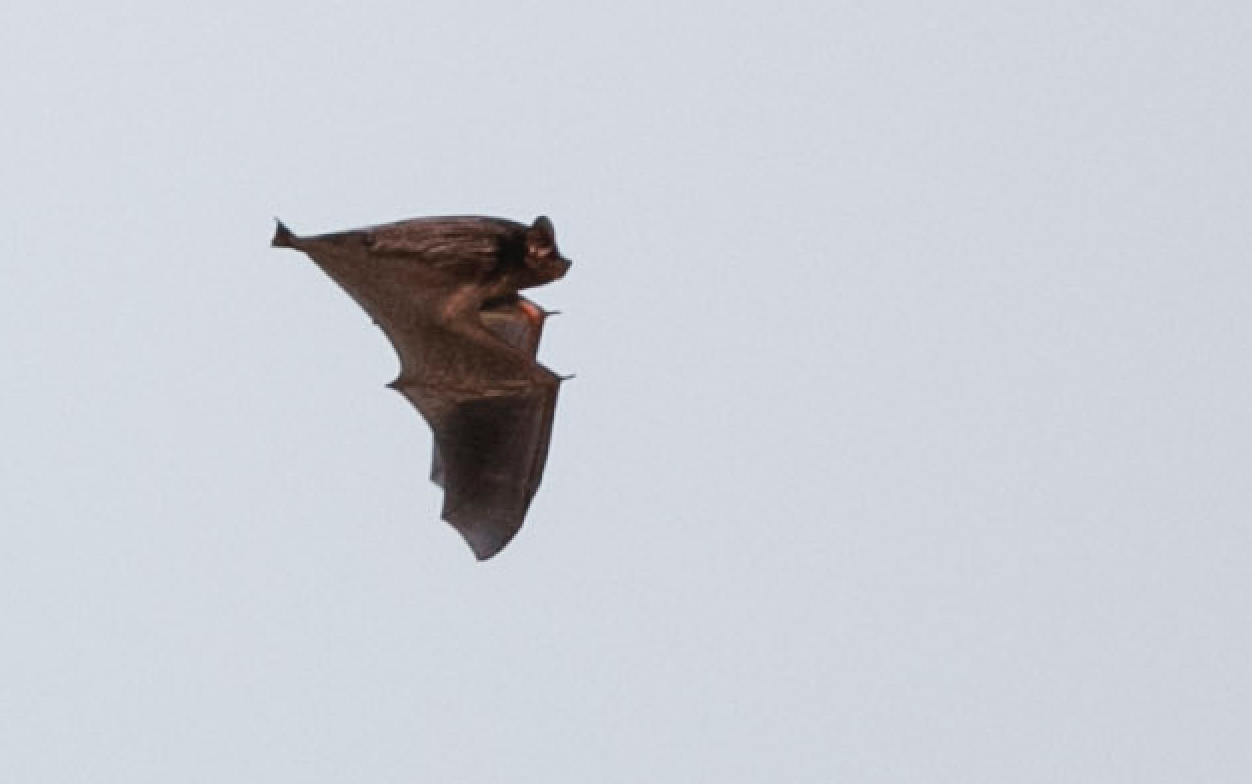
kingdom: Animalia
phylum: Chordata
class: Mammalia
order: Chiroptera
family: Vespertilionidae
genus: Lasionycteris
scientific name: Lasionycteris noctivagans
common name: Silver-haired bat
